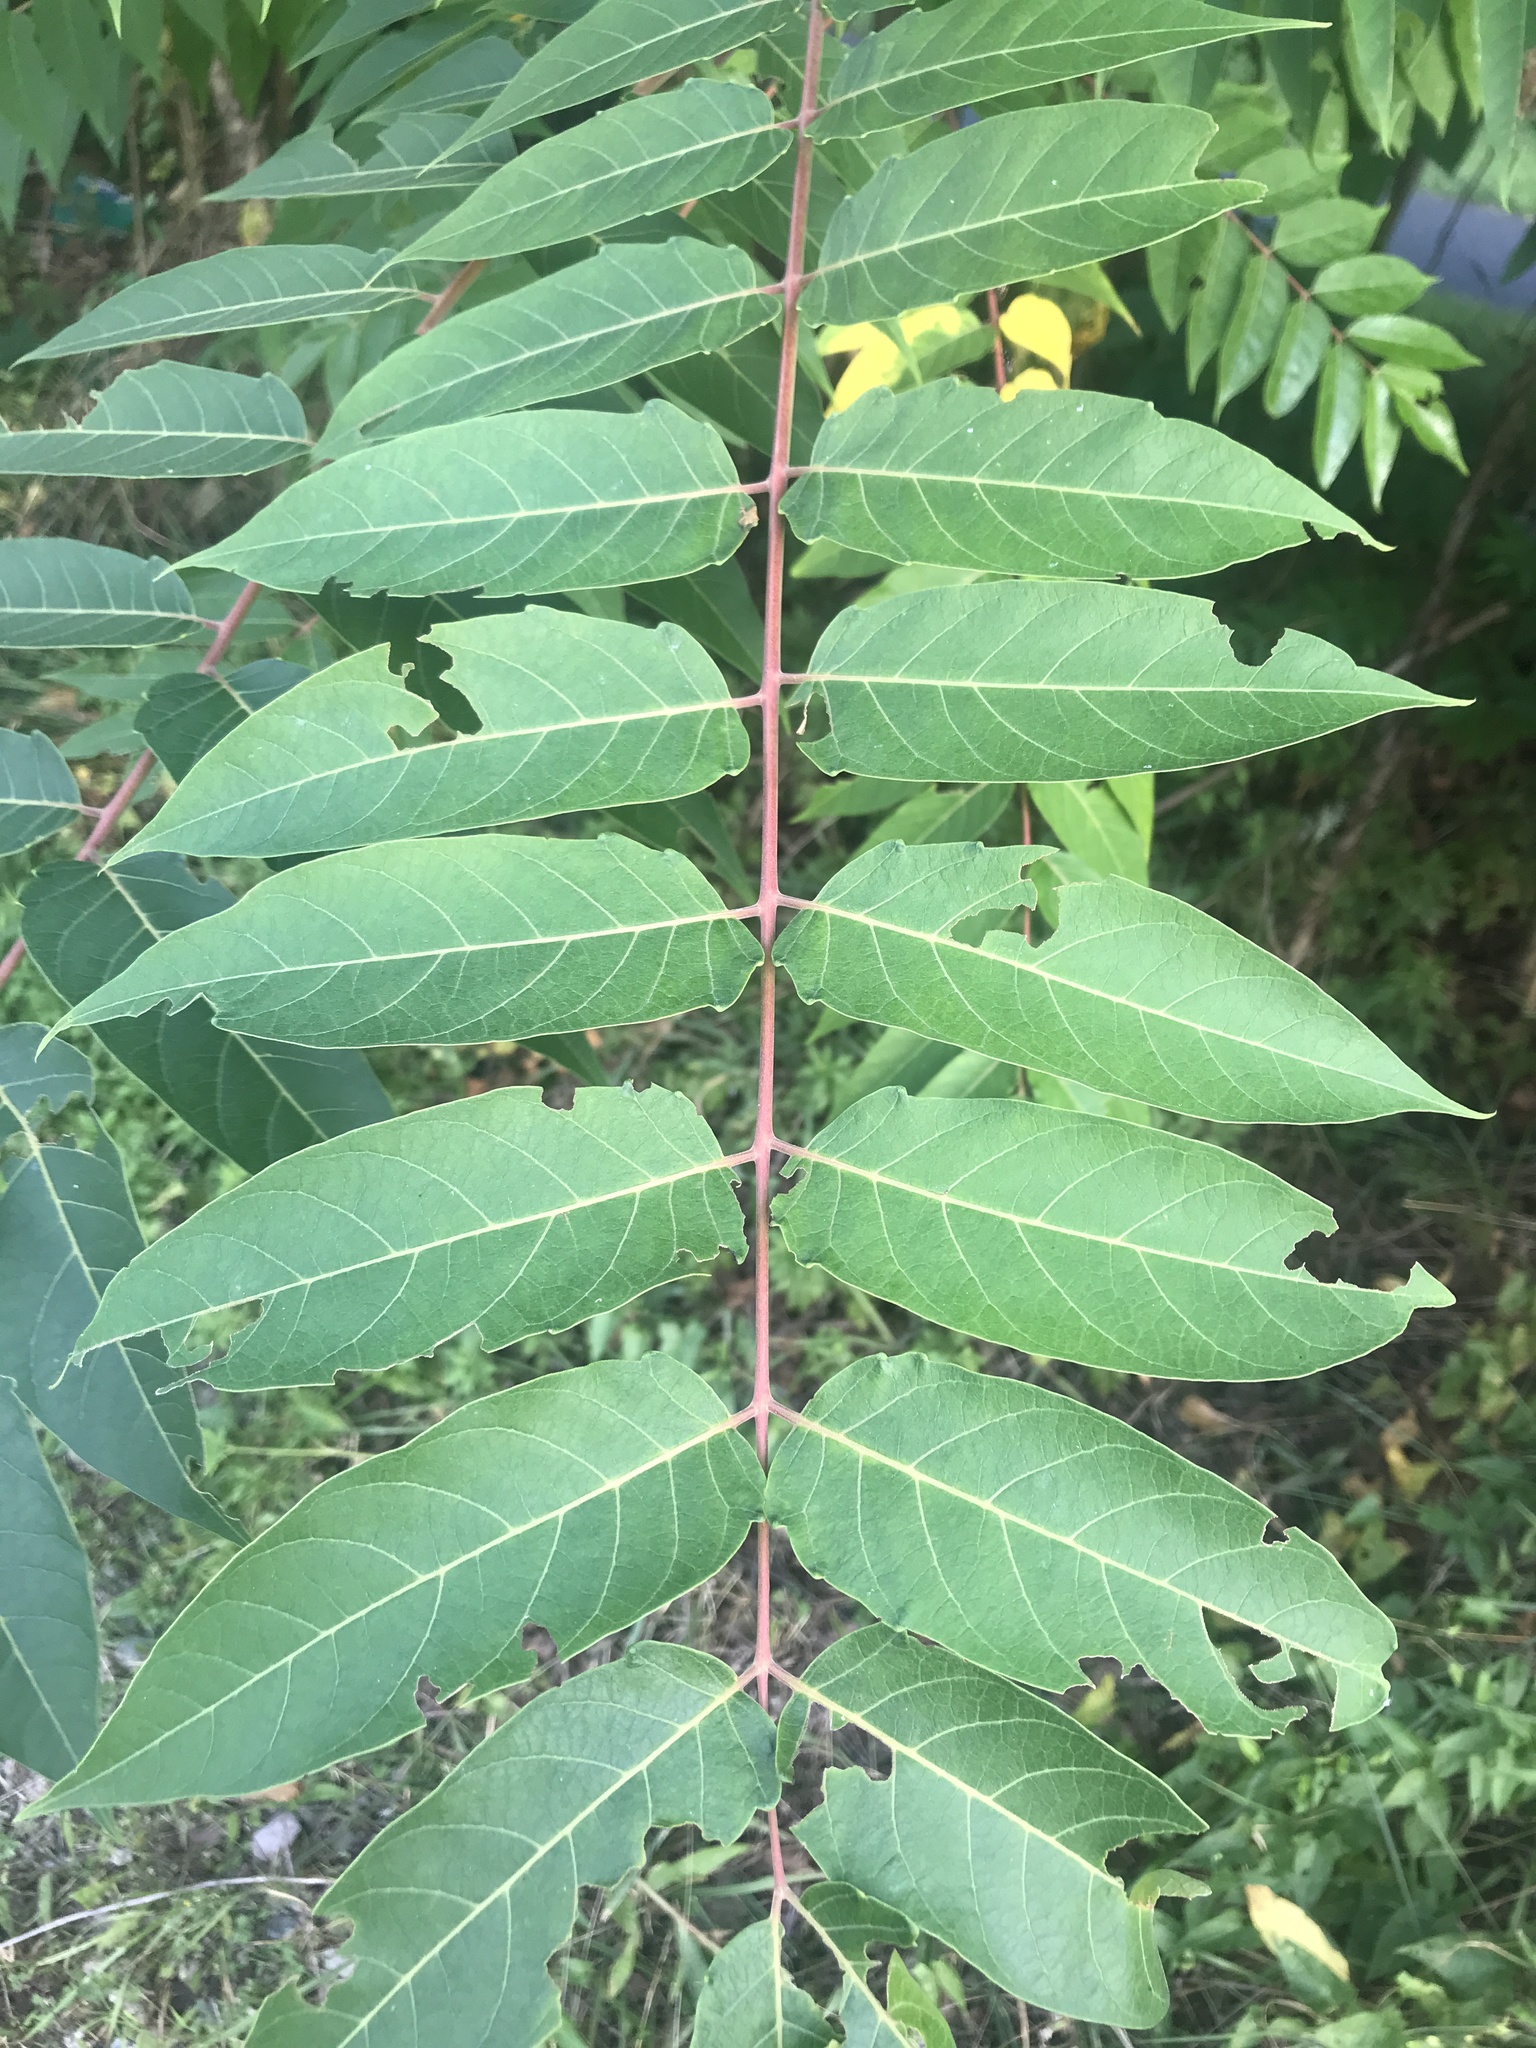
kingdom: Plantae
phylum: Tracheophyta
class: Magnoliopsida
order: Sapindales
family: Simaroubaceae
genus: Ailanthus
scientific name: Ailanthus altissima
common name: Tree-of-heaven
